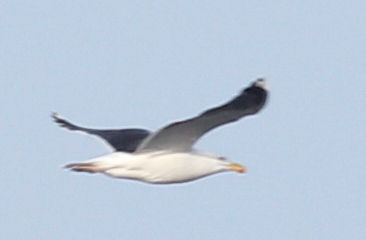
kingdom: Animalia
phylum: Chordata
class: Aves
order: Charadriiformes
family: Laridae
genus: Larus
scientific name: Larus marinus
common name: Great black-backed gull
